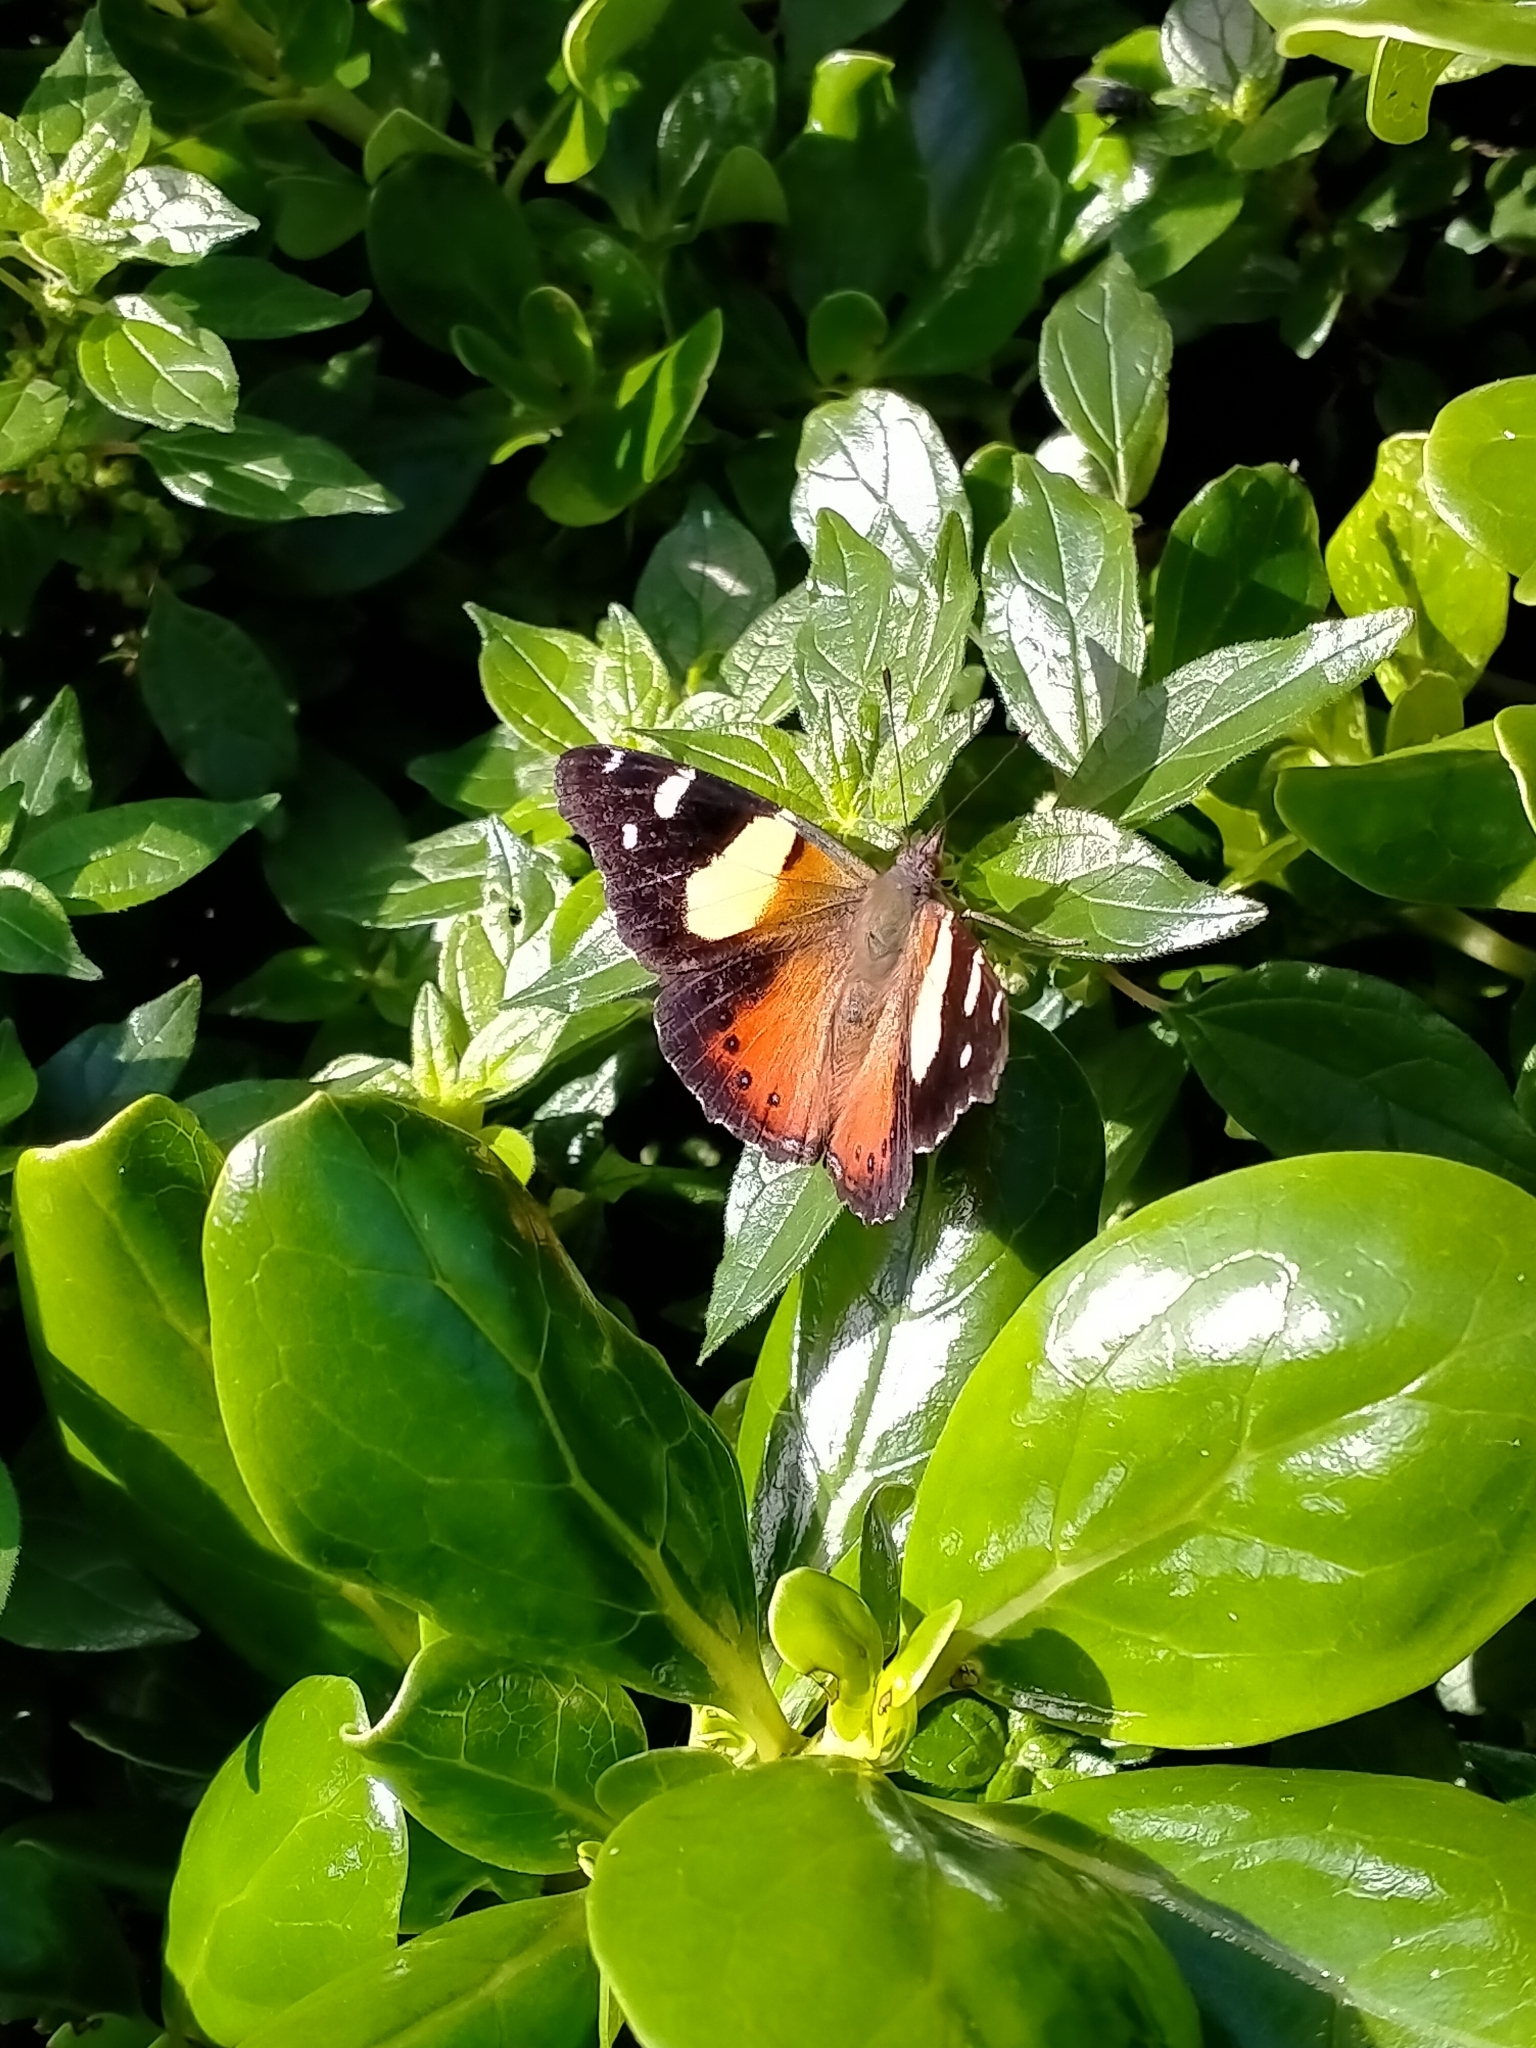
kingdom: Animalia
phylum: Arthropoda
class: Insecta
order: Lepidoptera
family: Nymphalidae
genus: Vanessa
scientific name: Vanessa itea
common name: Yellow admiral
